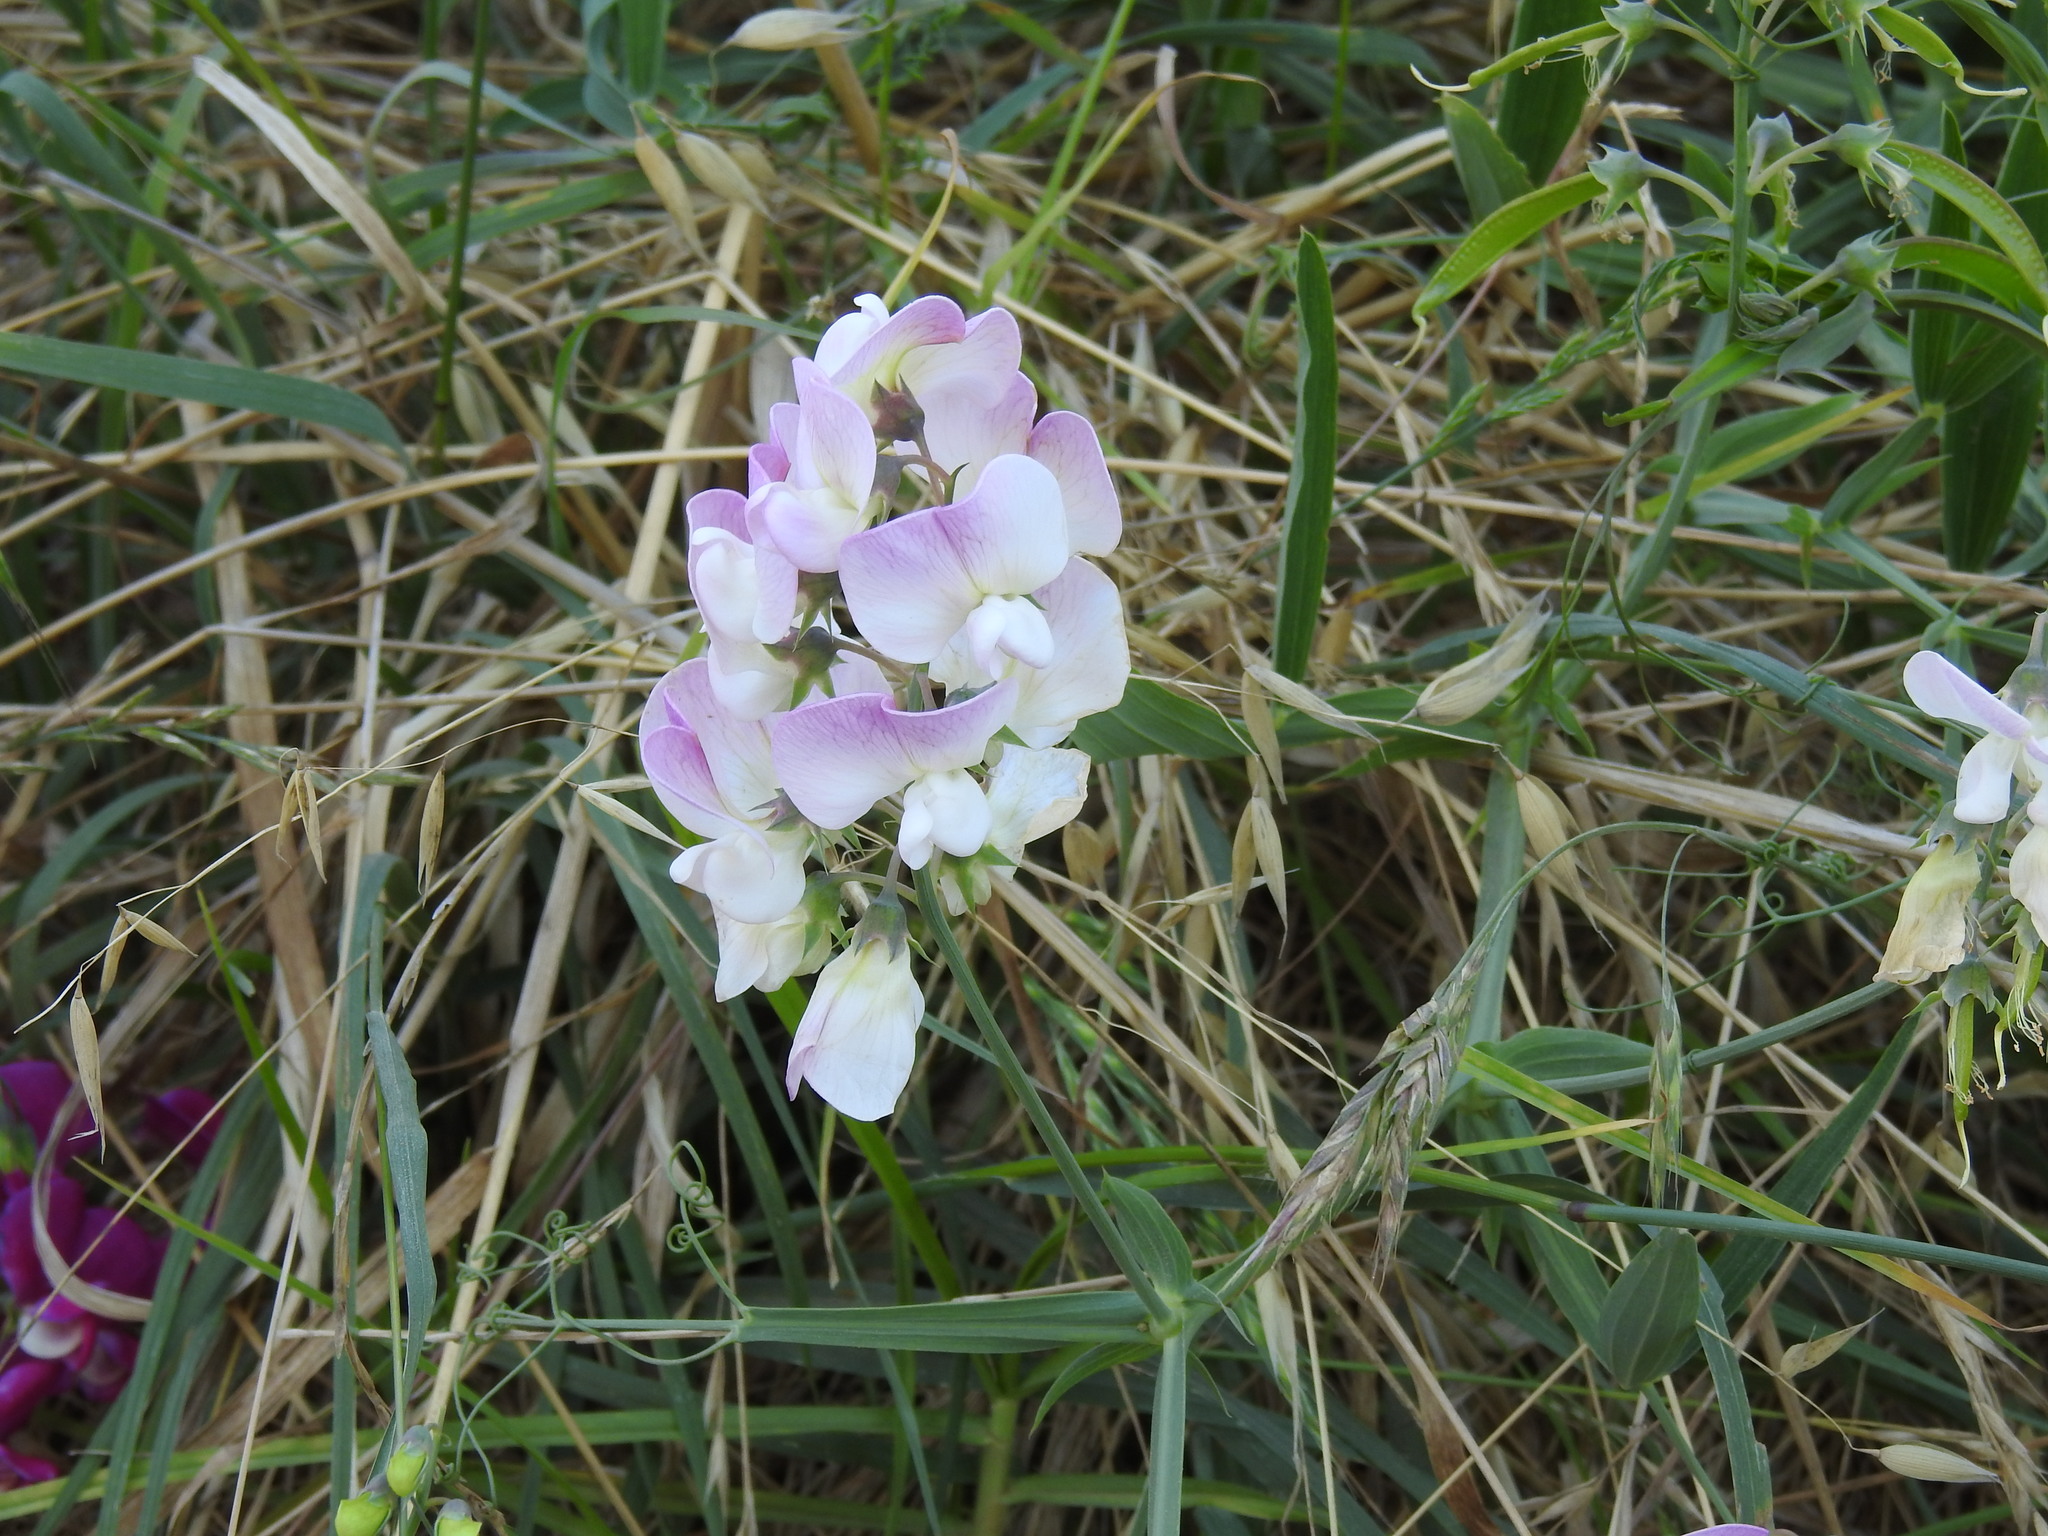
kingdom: Plantae
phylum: Tracheophyta
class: Magnoliopsida
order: Fabales
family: Fabaceae
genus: Lathyrus
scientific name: Lathyrus latifolius
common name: Perennial pea
